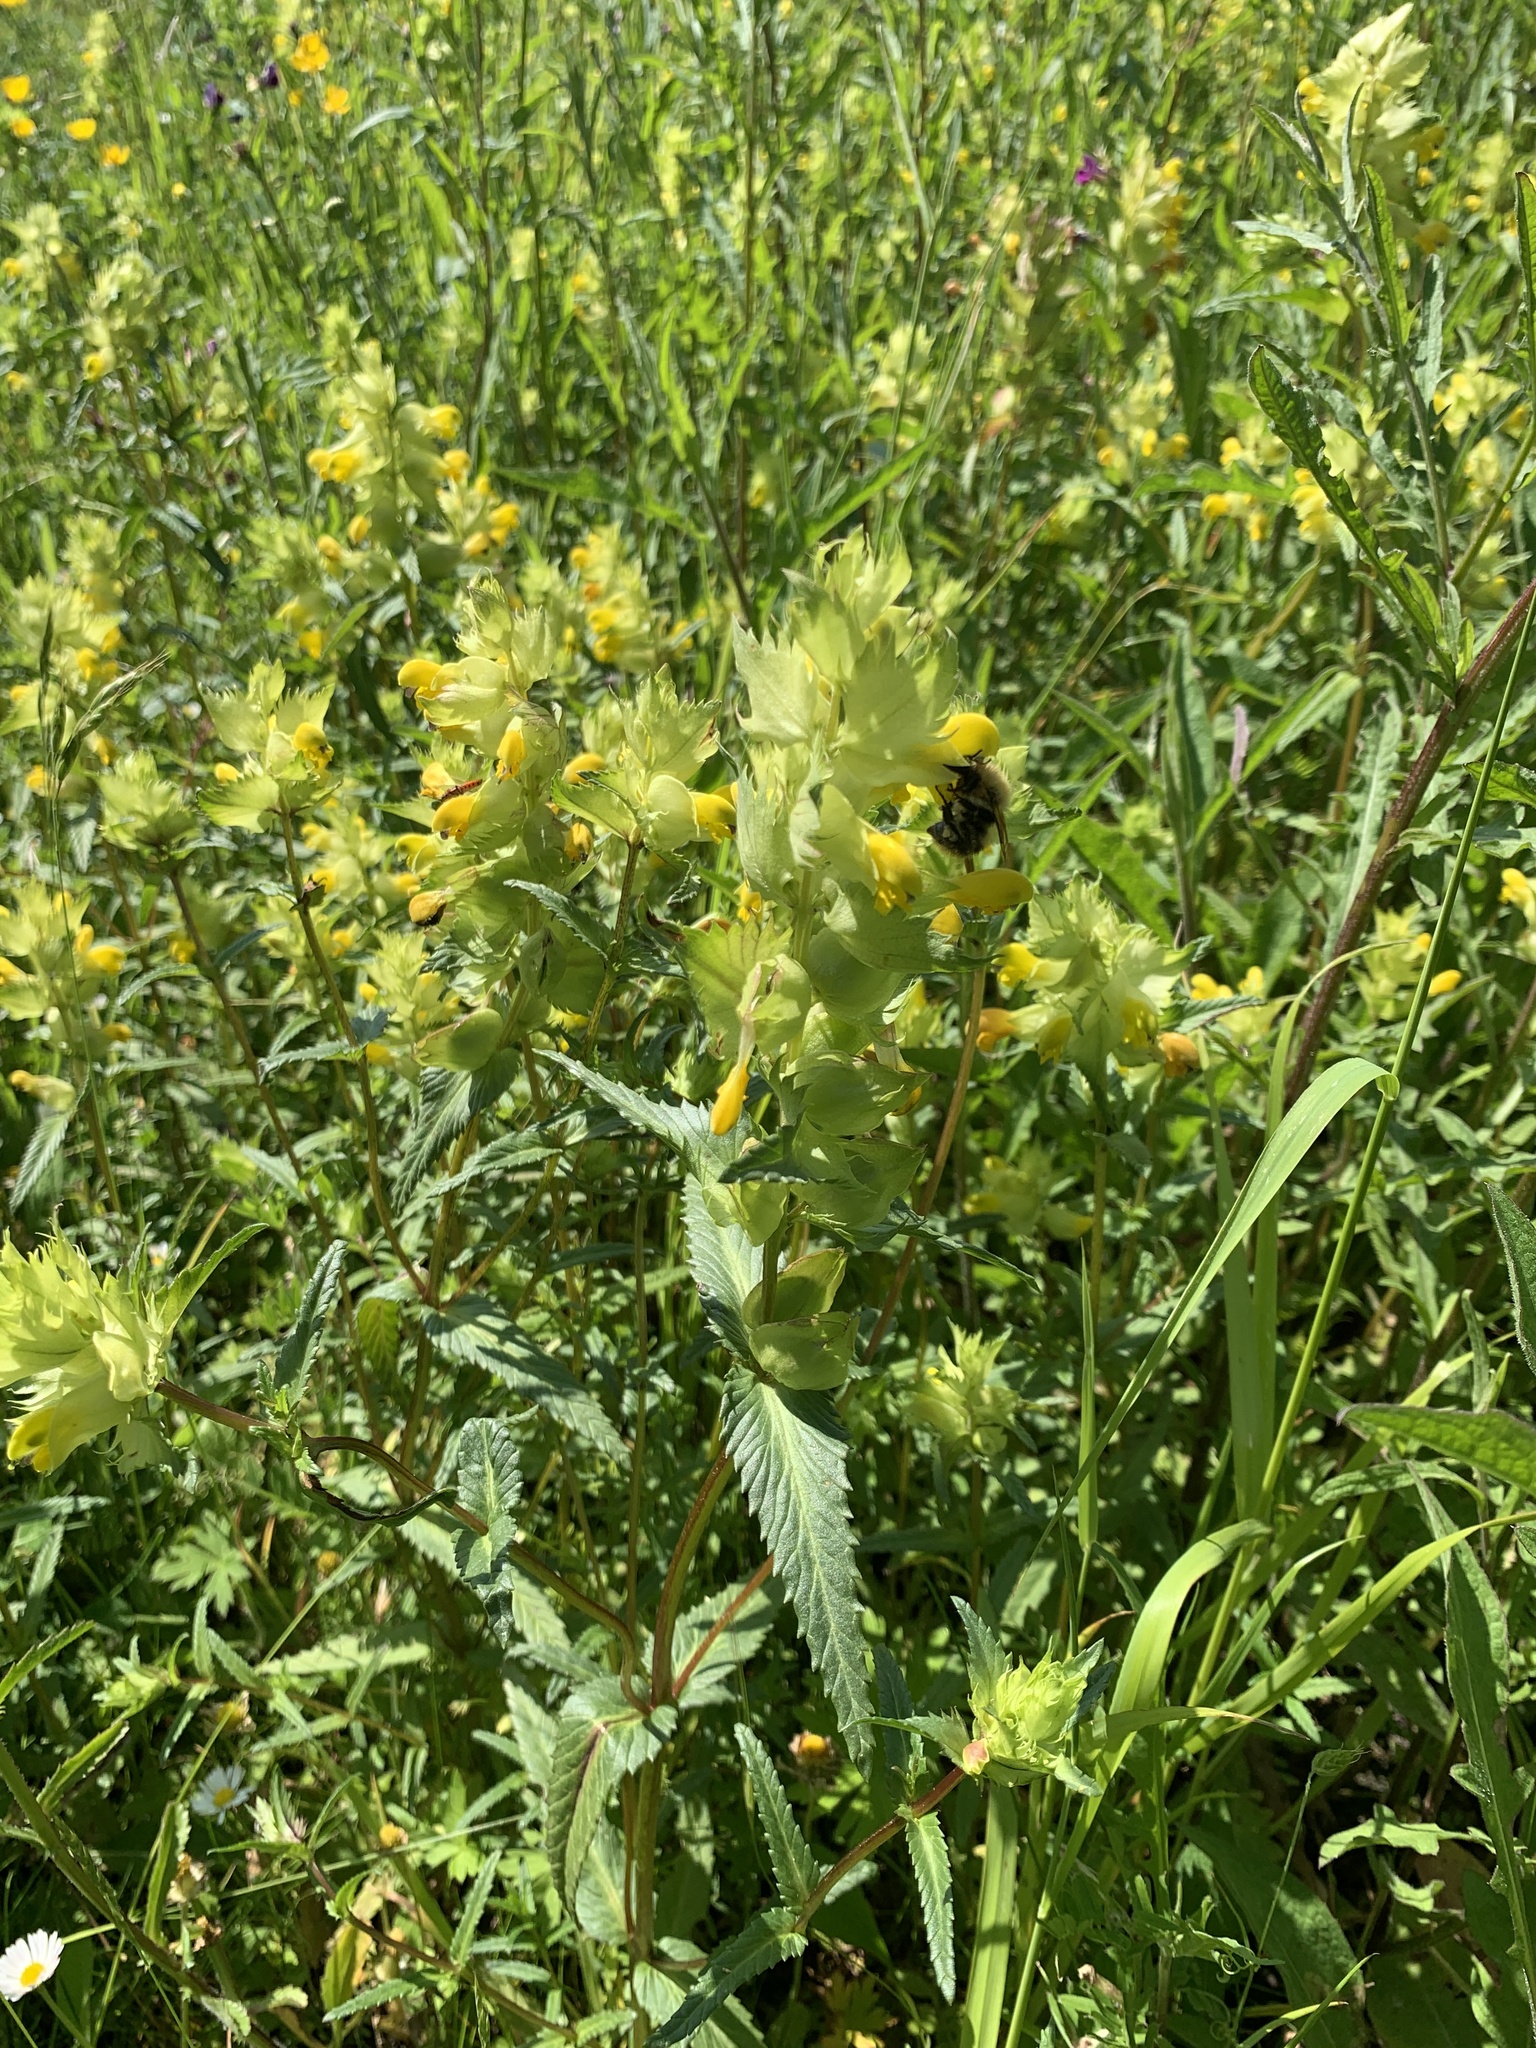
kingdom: Plantae
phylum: Tracheophyta
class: Magnoliopsida
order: Lamiales
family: Orobanchaceae
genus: Rhinanthus
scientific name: Rhinanthus serotinus
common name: Late-flowering yellow rattle
